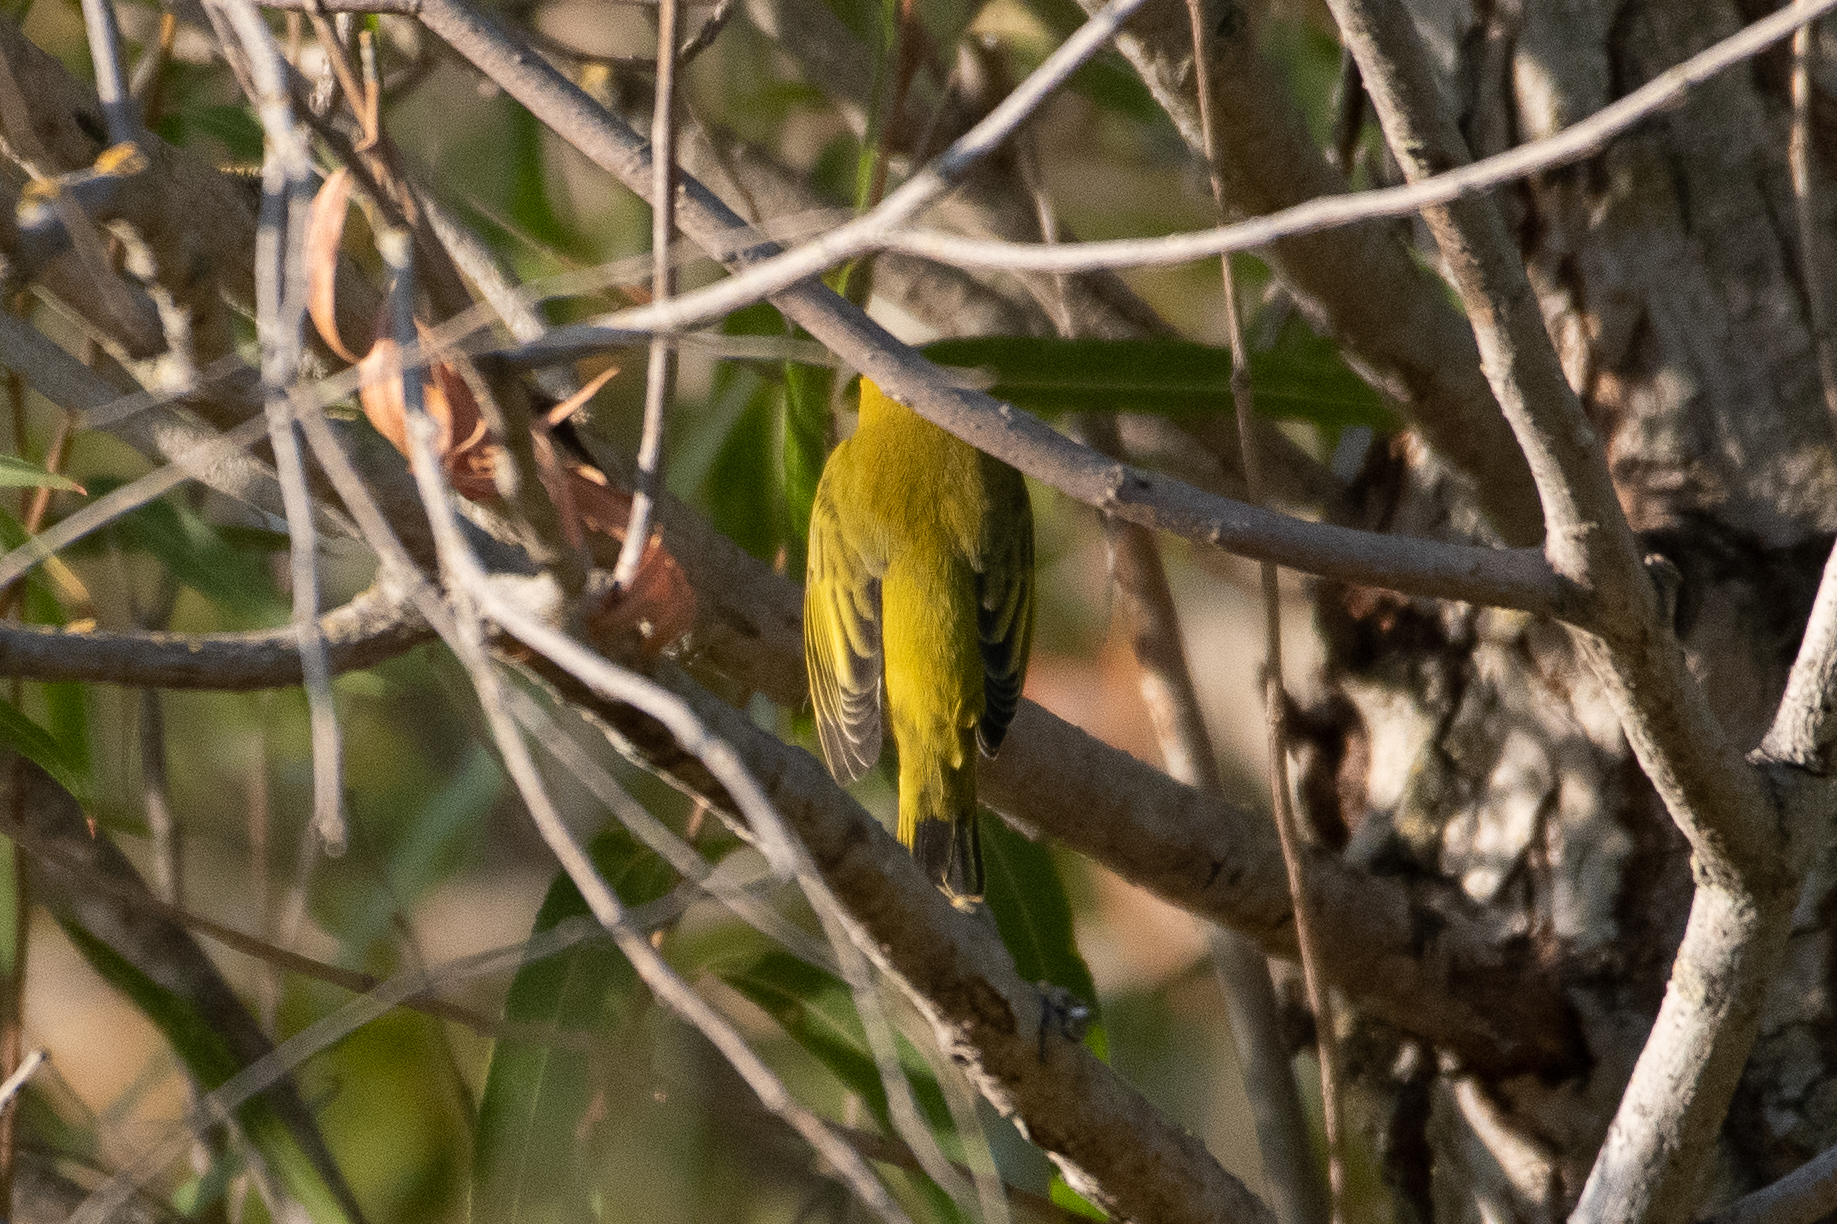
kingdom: Animalia
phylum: Chordata
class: Aves
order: Passeriformes
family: Parulidae
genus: Setophaga
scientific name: Setophaga petechia
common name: Yellow warbler
